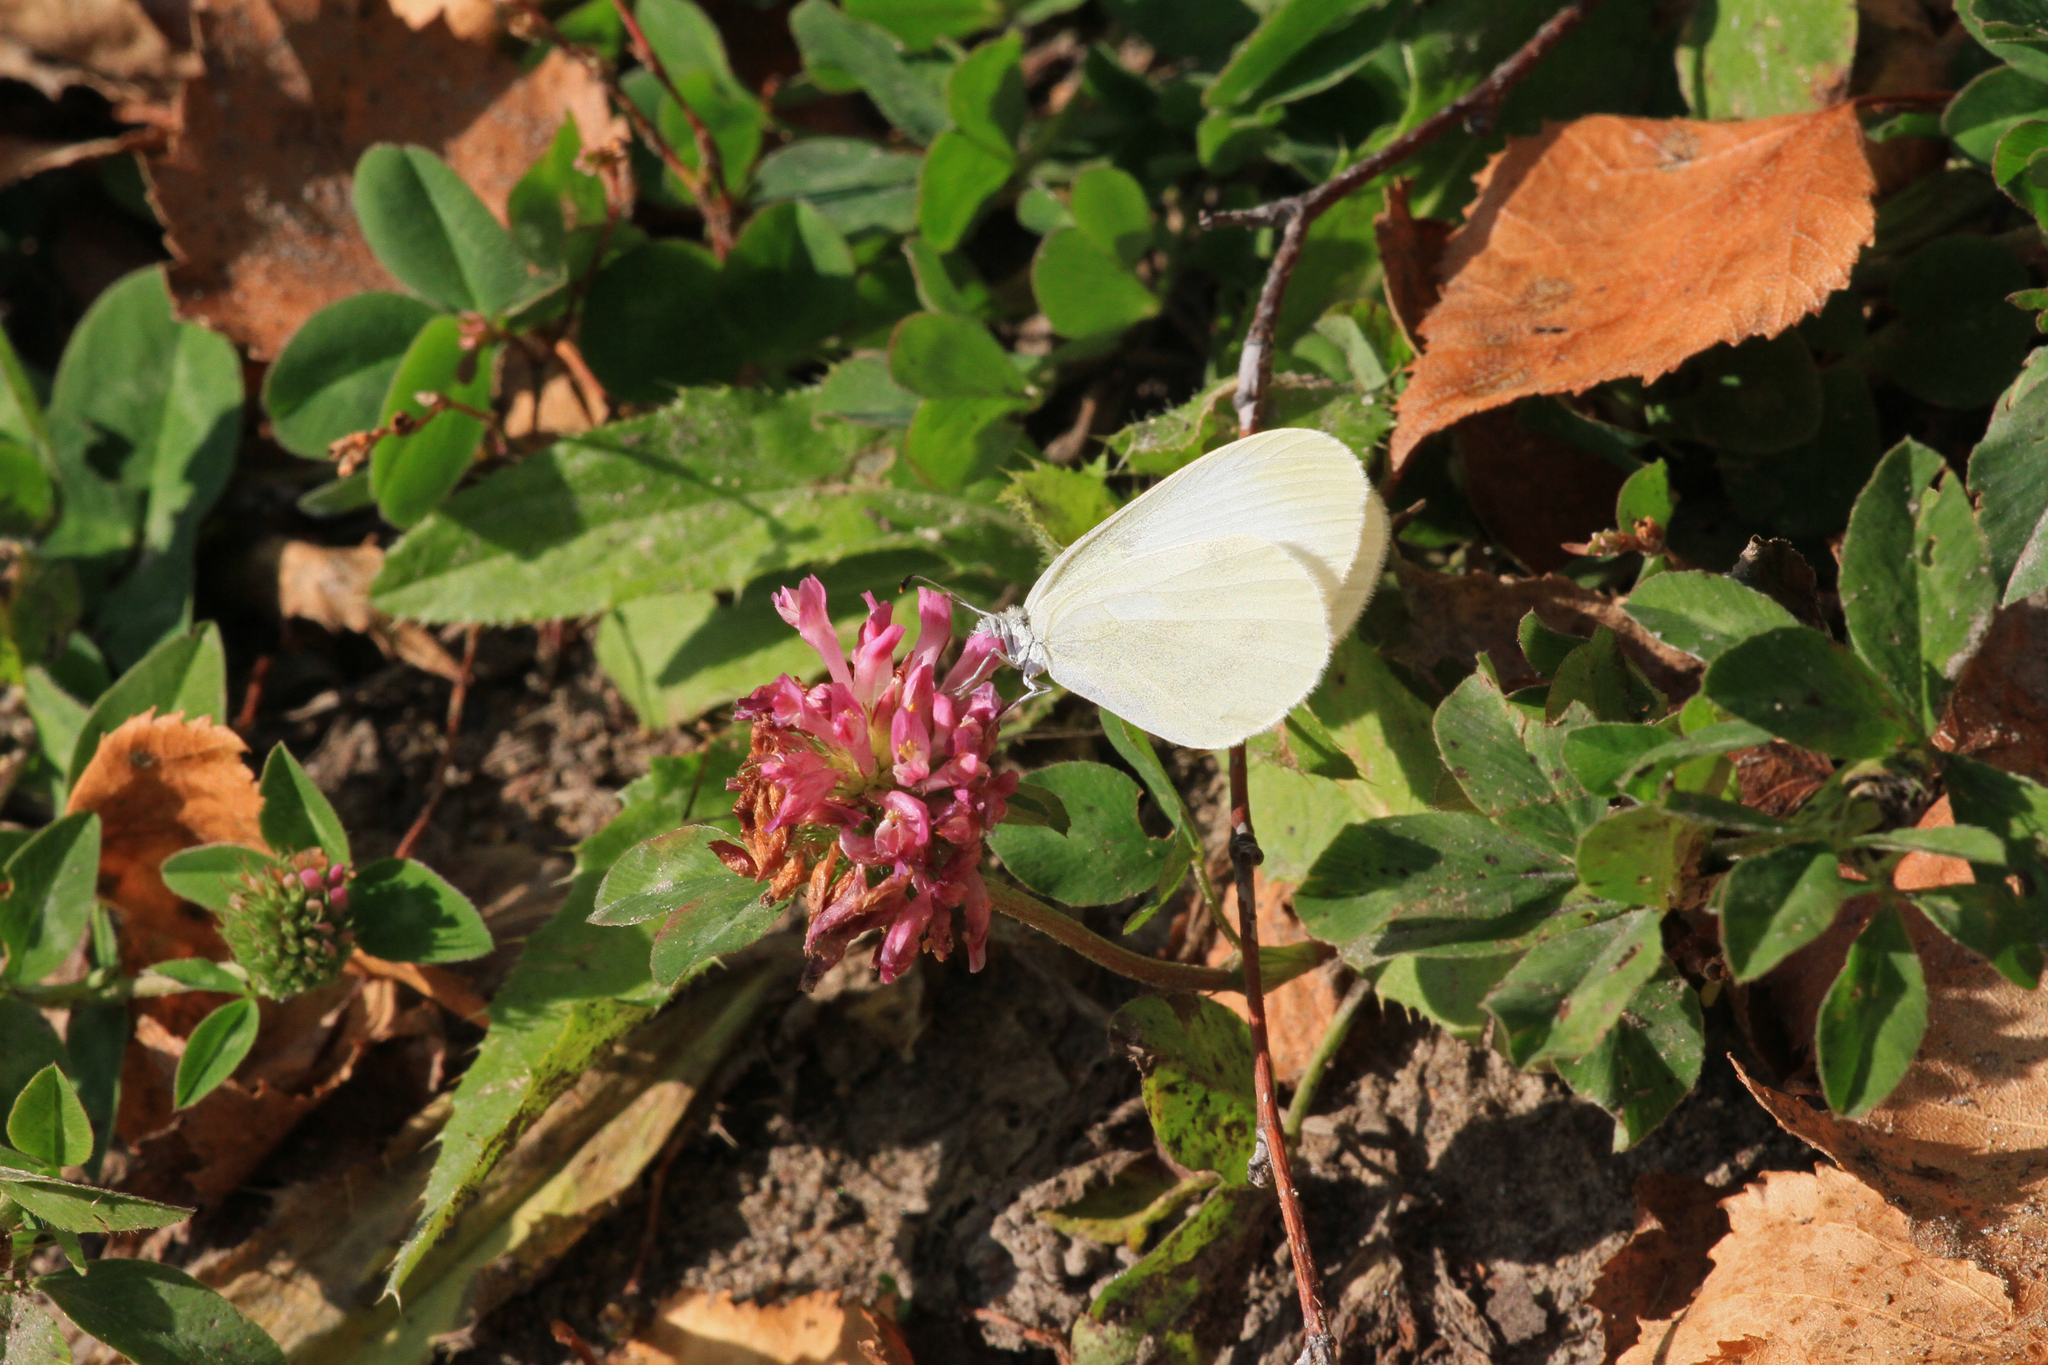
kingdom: Plantae
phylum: Tracheophyta
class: Magnoliopsida
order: Fabales
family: Fabaceae
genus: Trifolium
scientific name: Trifolium pratense
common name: Red clover
